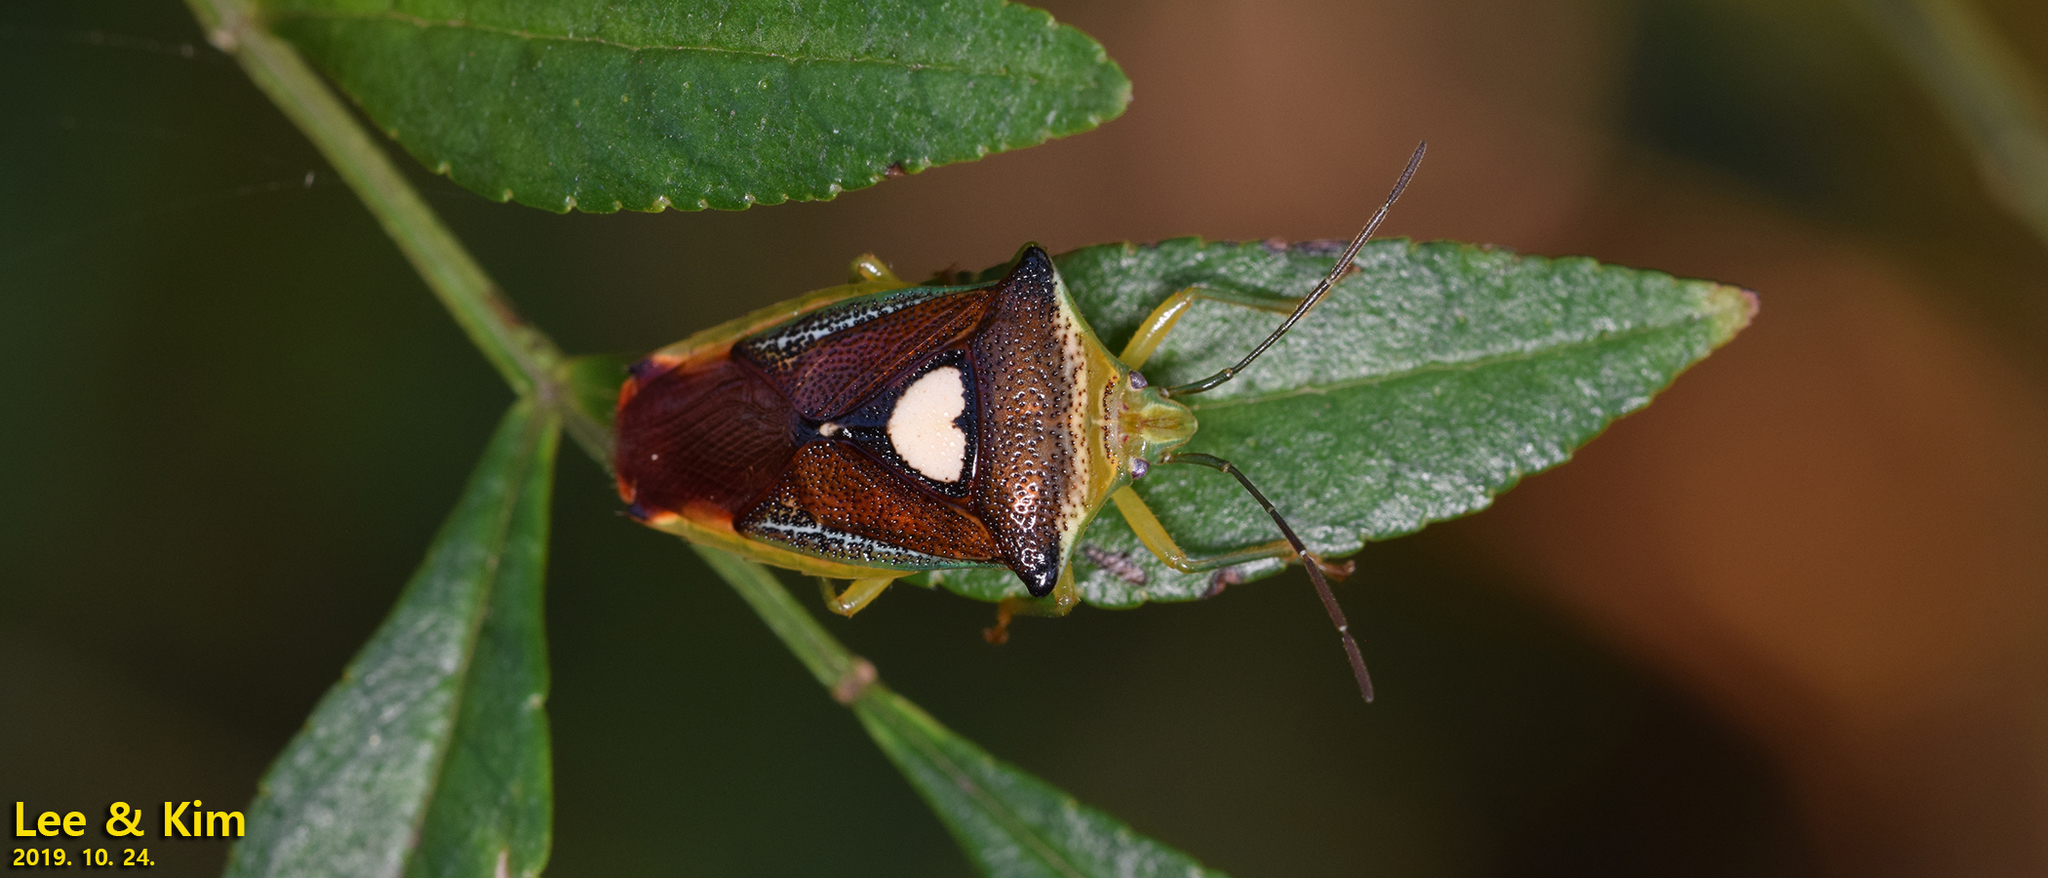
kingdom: Animalia
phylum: Arthropoda
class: Insecta
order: Hemiptera
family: Acanthosomatidae
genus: Sastragala
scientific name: Sastragala esakii
